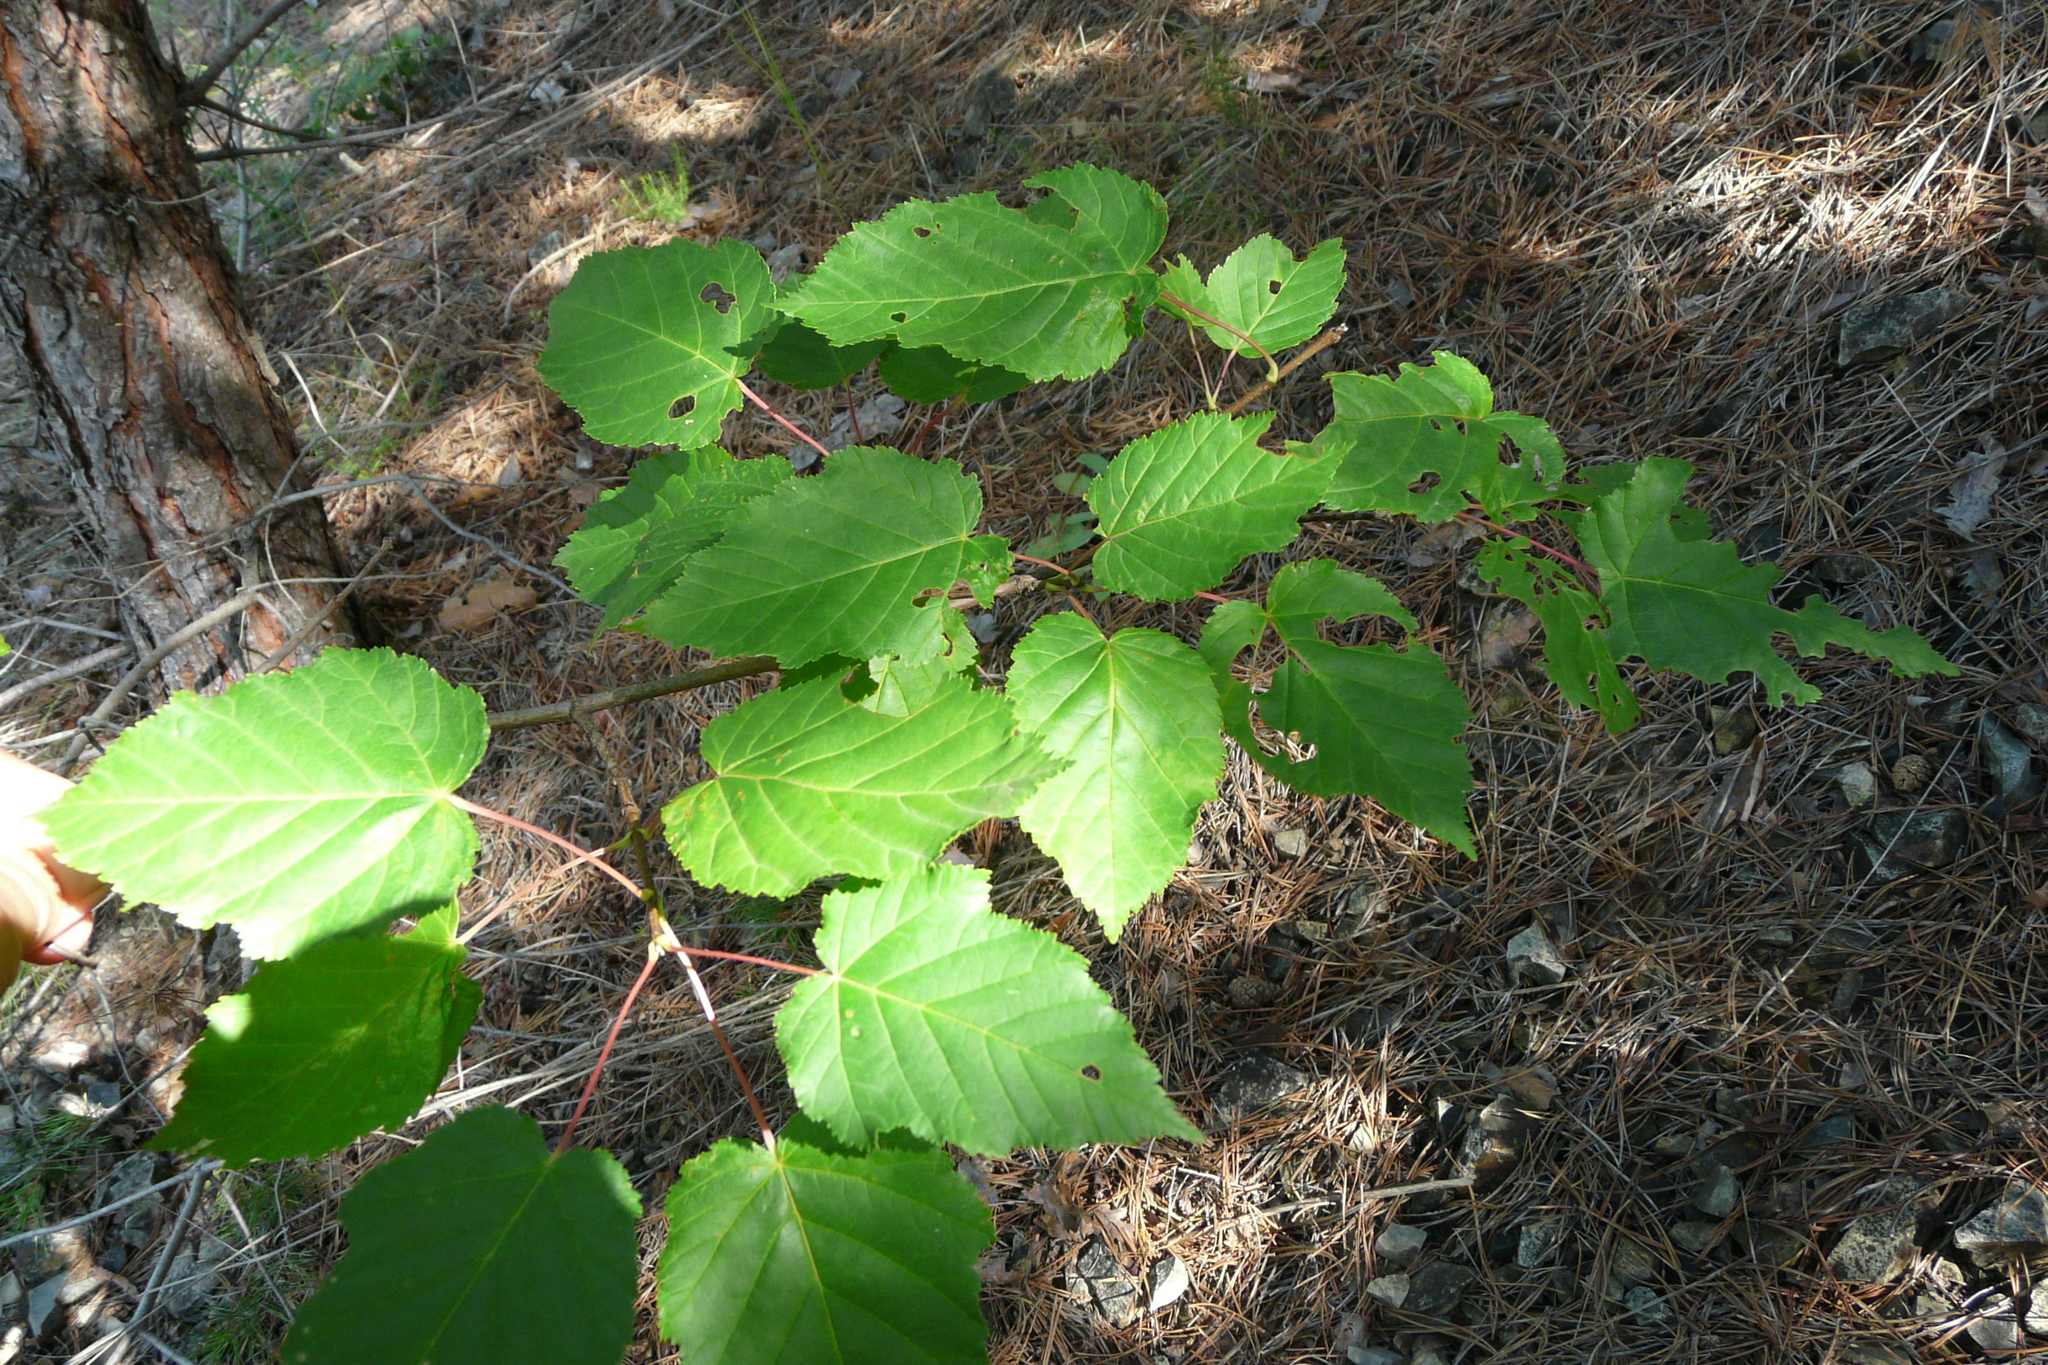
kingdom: Plantae
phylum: Tracheophyta
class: Magnoliopsida
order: Sapindales
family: Sapindaceae
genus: Acer
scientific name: Acer tataricum
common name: Tartar maple
